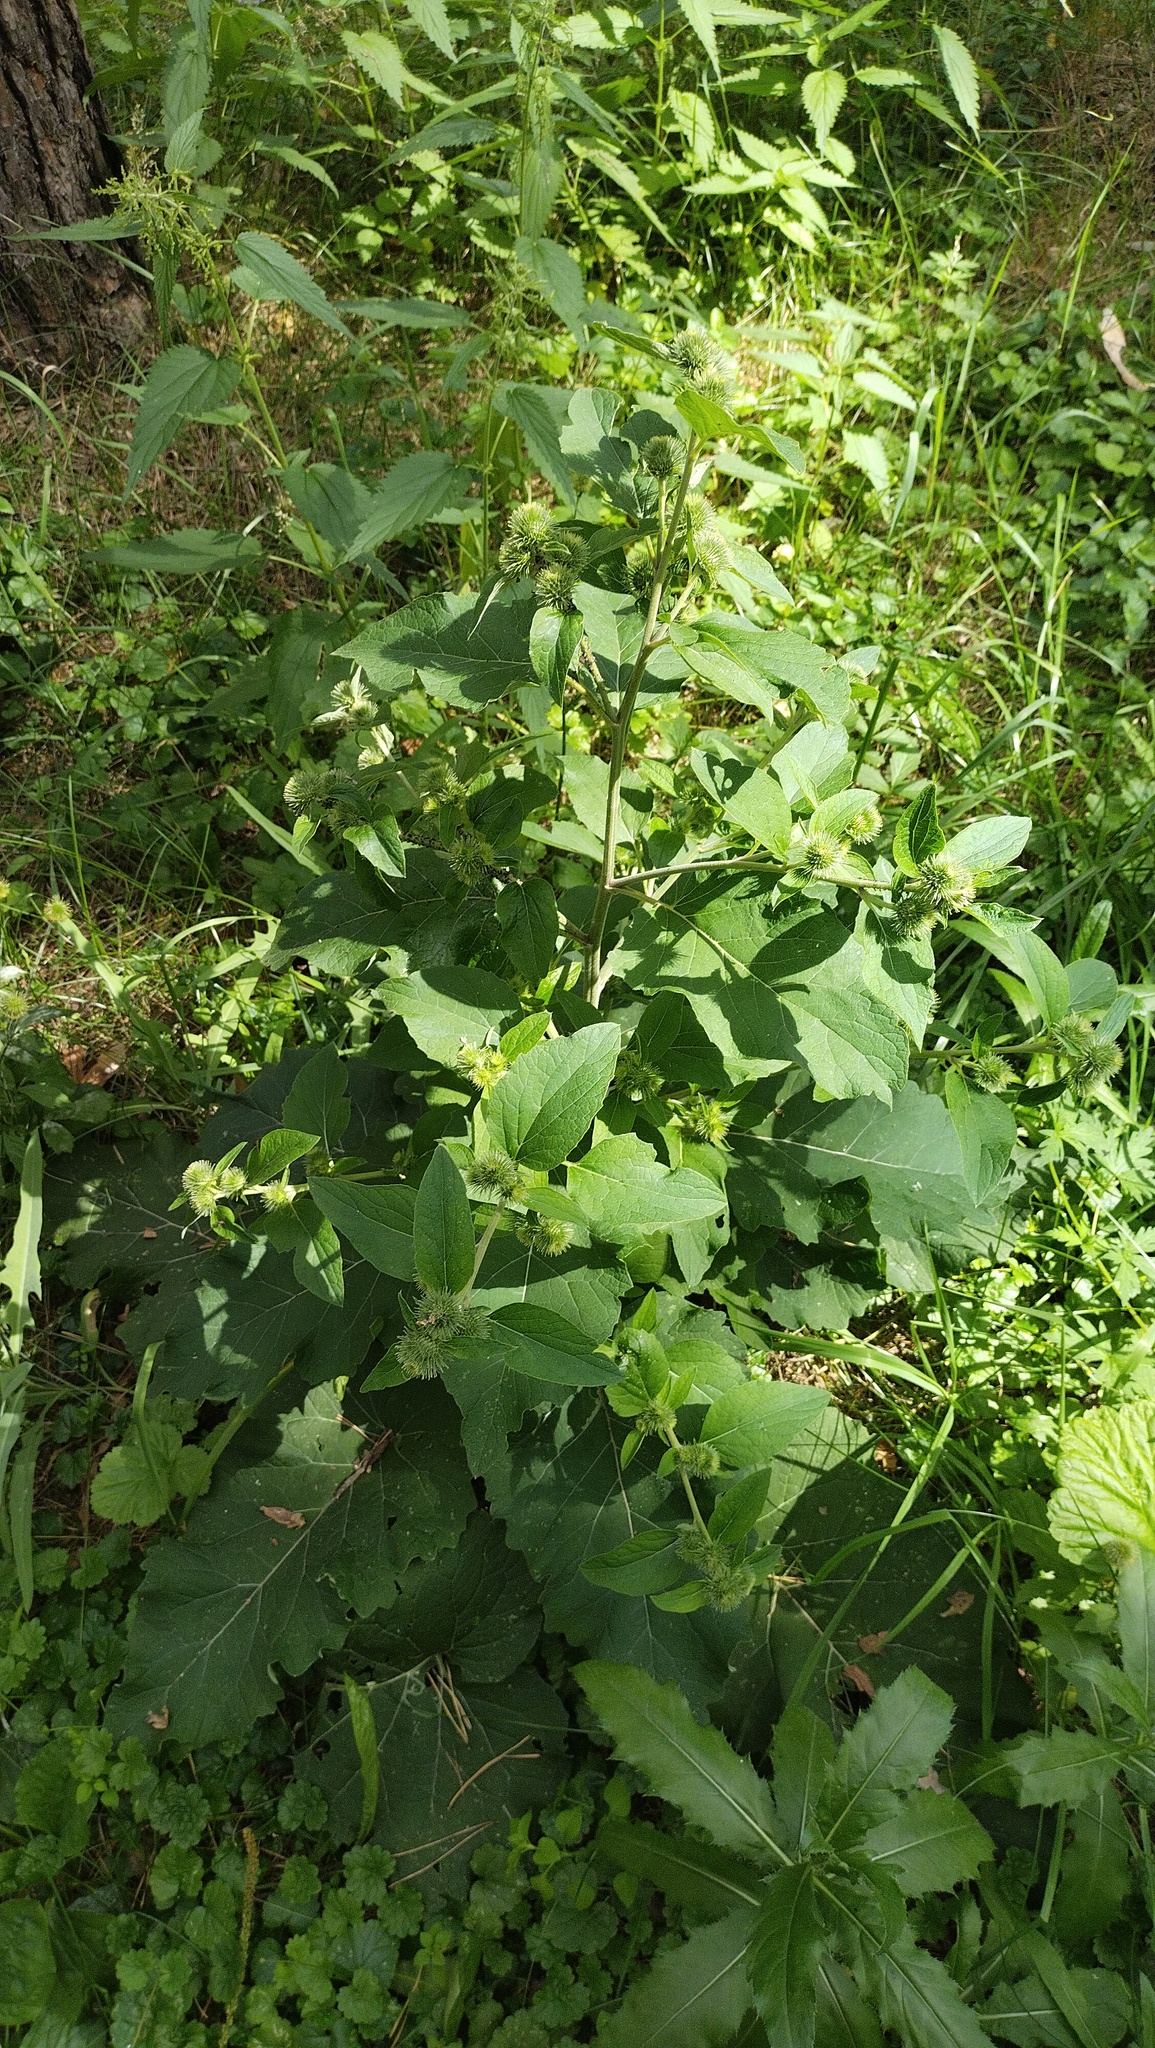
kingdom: Plantae
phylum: Tracheophyta
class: Magnoliopsida
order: Asterales
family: Asteraceae
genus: Arctium
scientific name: Arctium minus
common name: Lesser burdock
